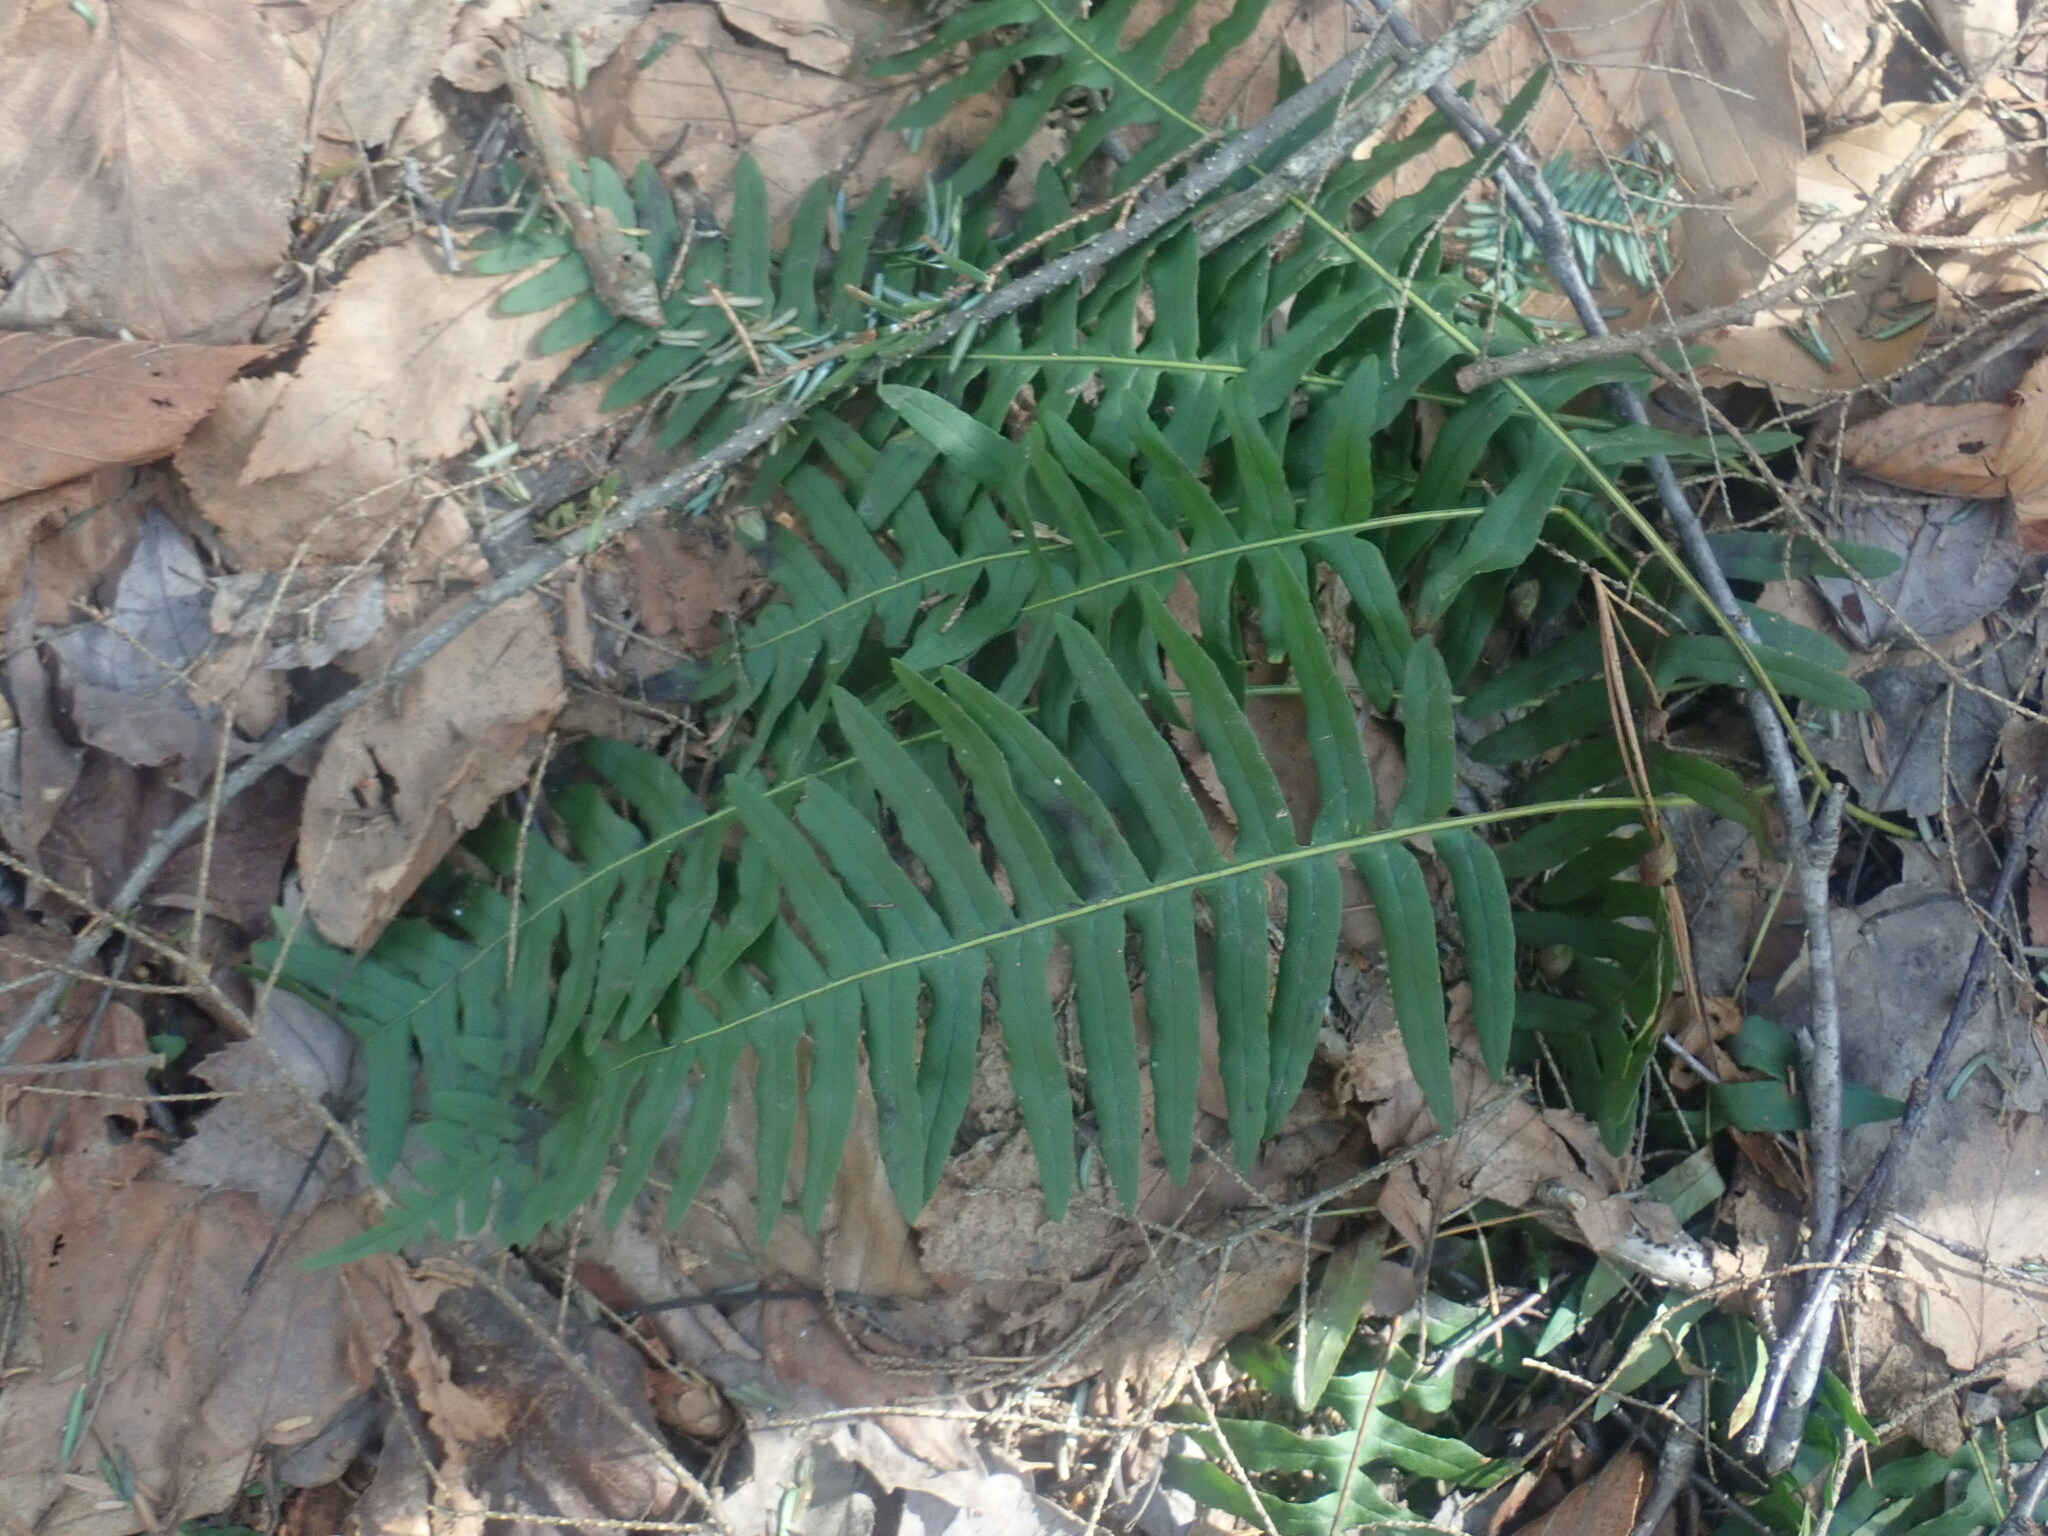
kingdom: Plantae
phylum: Tracheophyta
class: Polypodiopsida
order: Polypodiales
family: Polypodiaceae
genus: Polypodium
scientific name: Polypodium
